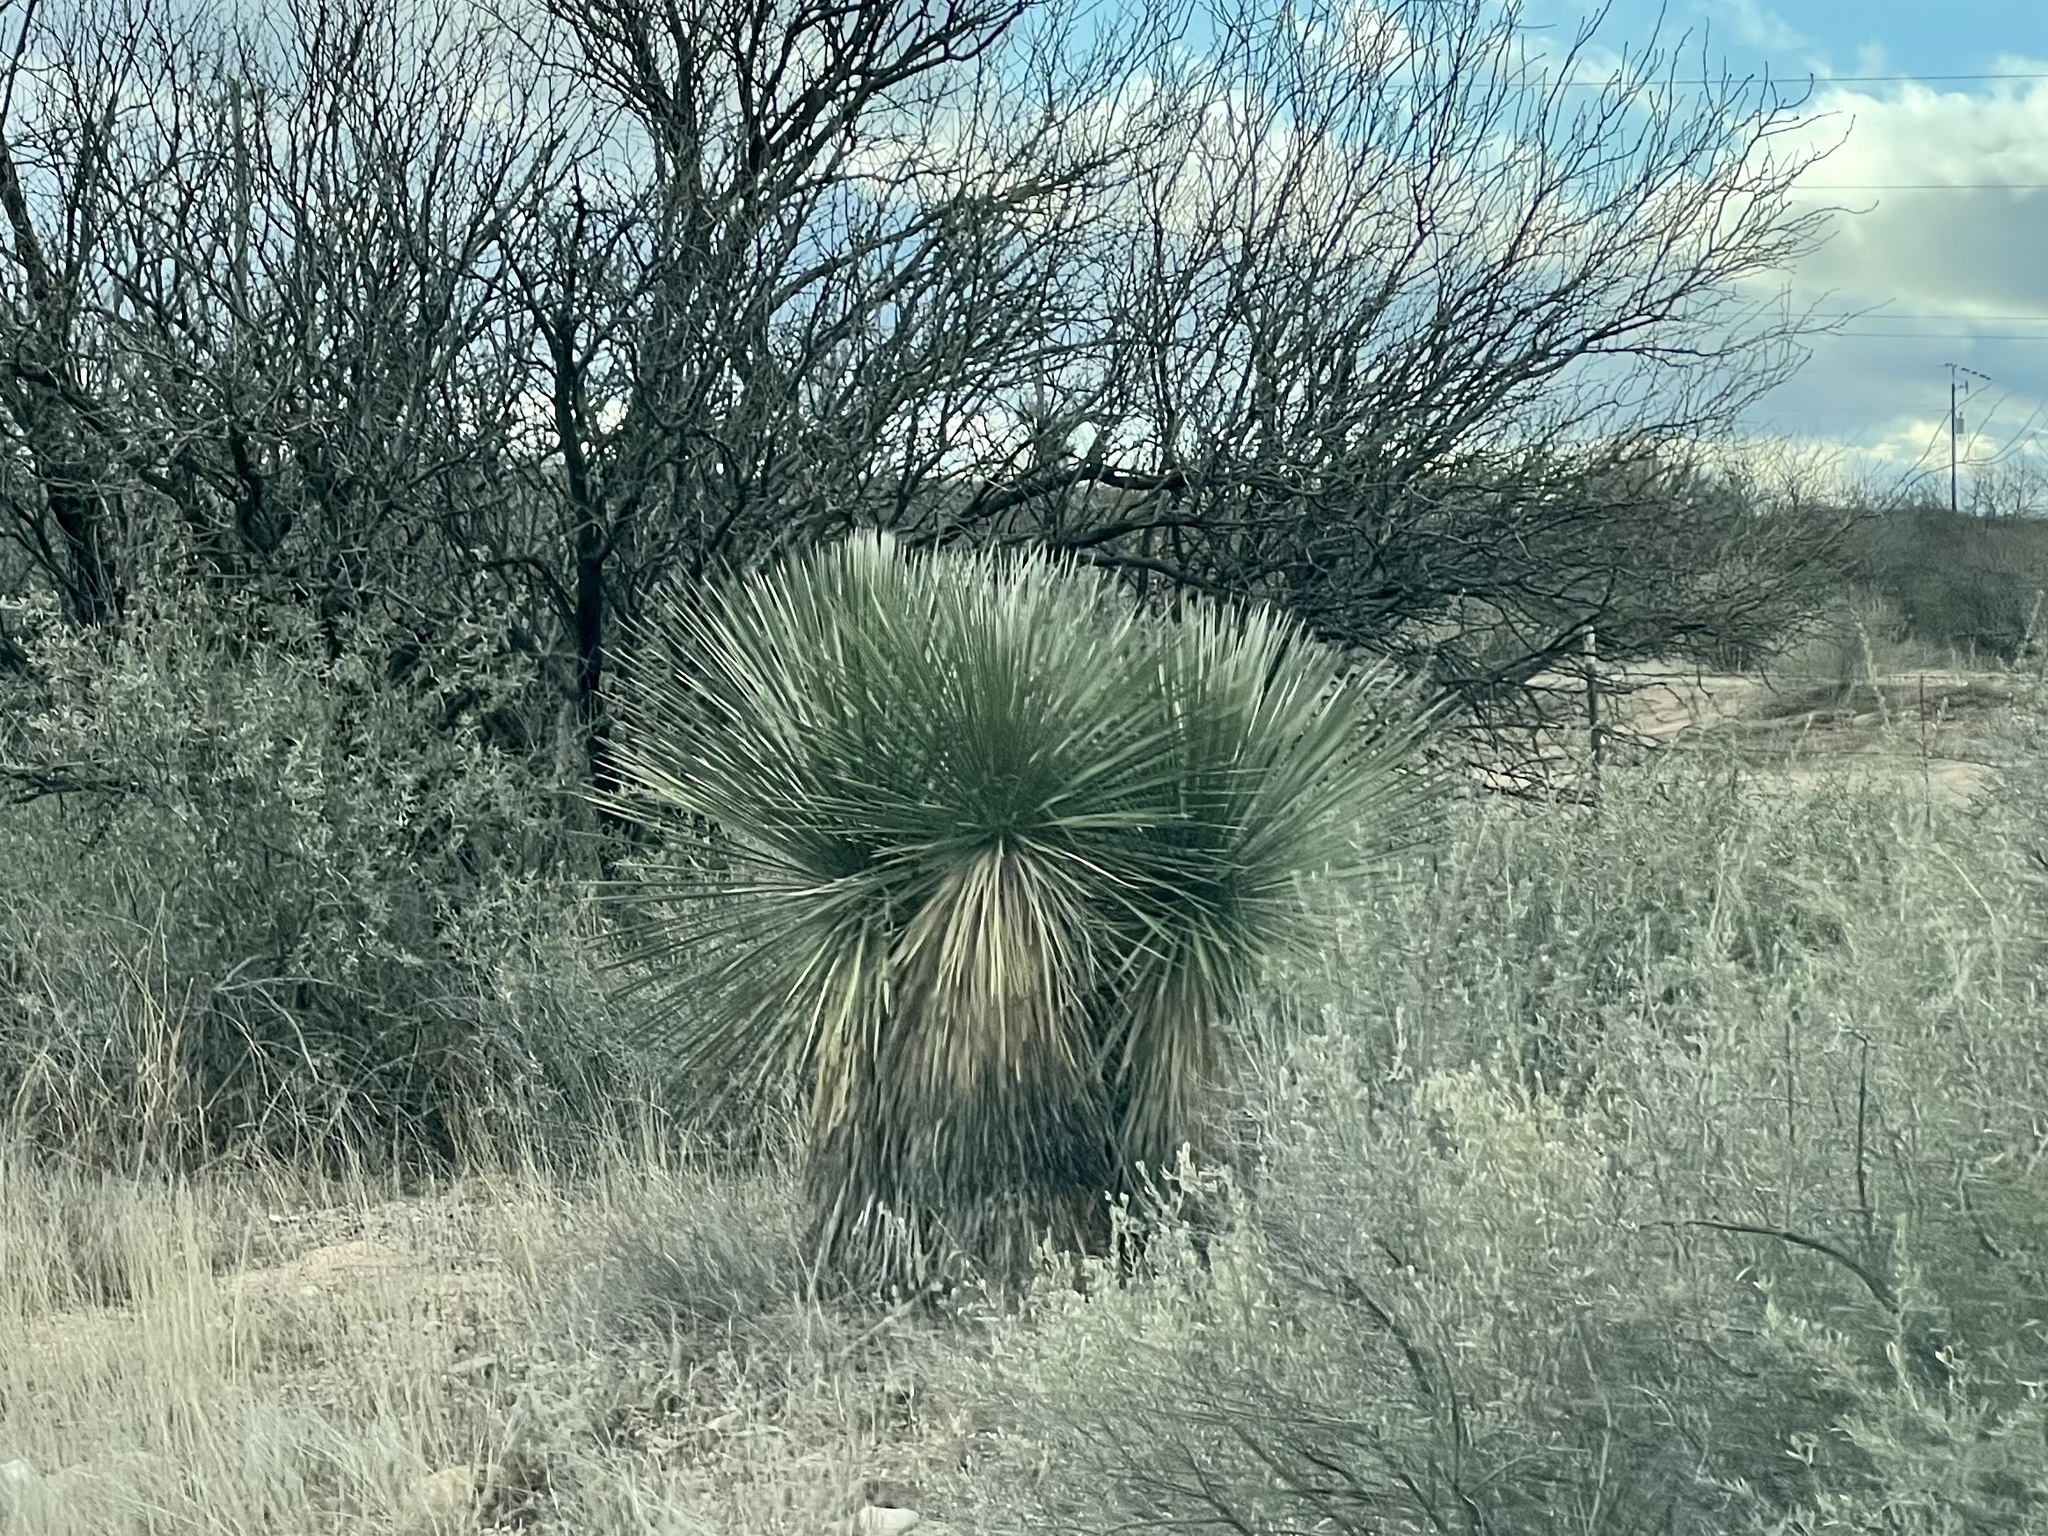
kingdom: Plantae
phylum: Tracheophyta
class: Liliopsida
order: Asparagales
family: Asparagaceae
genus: Yucca
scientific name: Yucca elata
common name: Palmella
